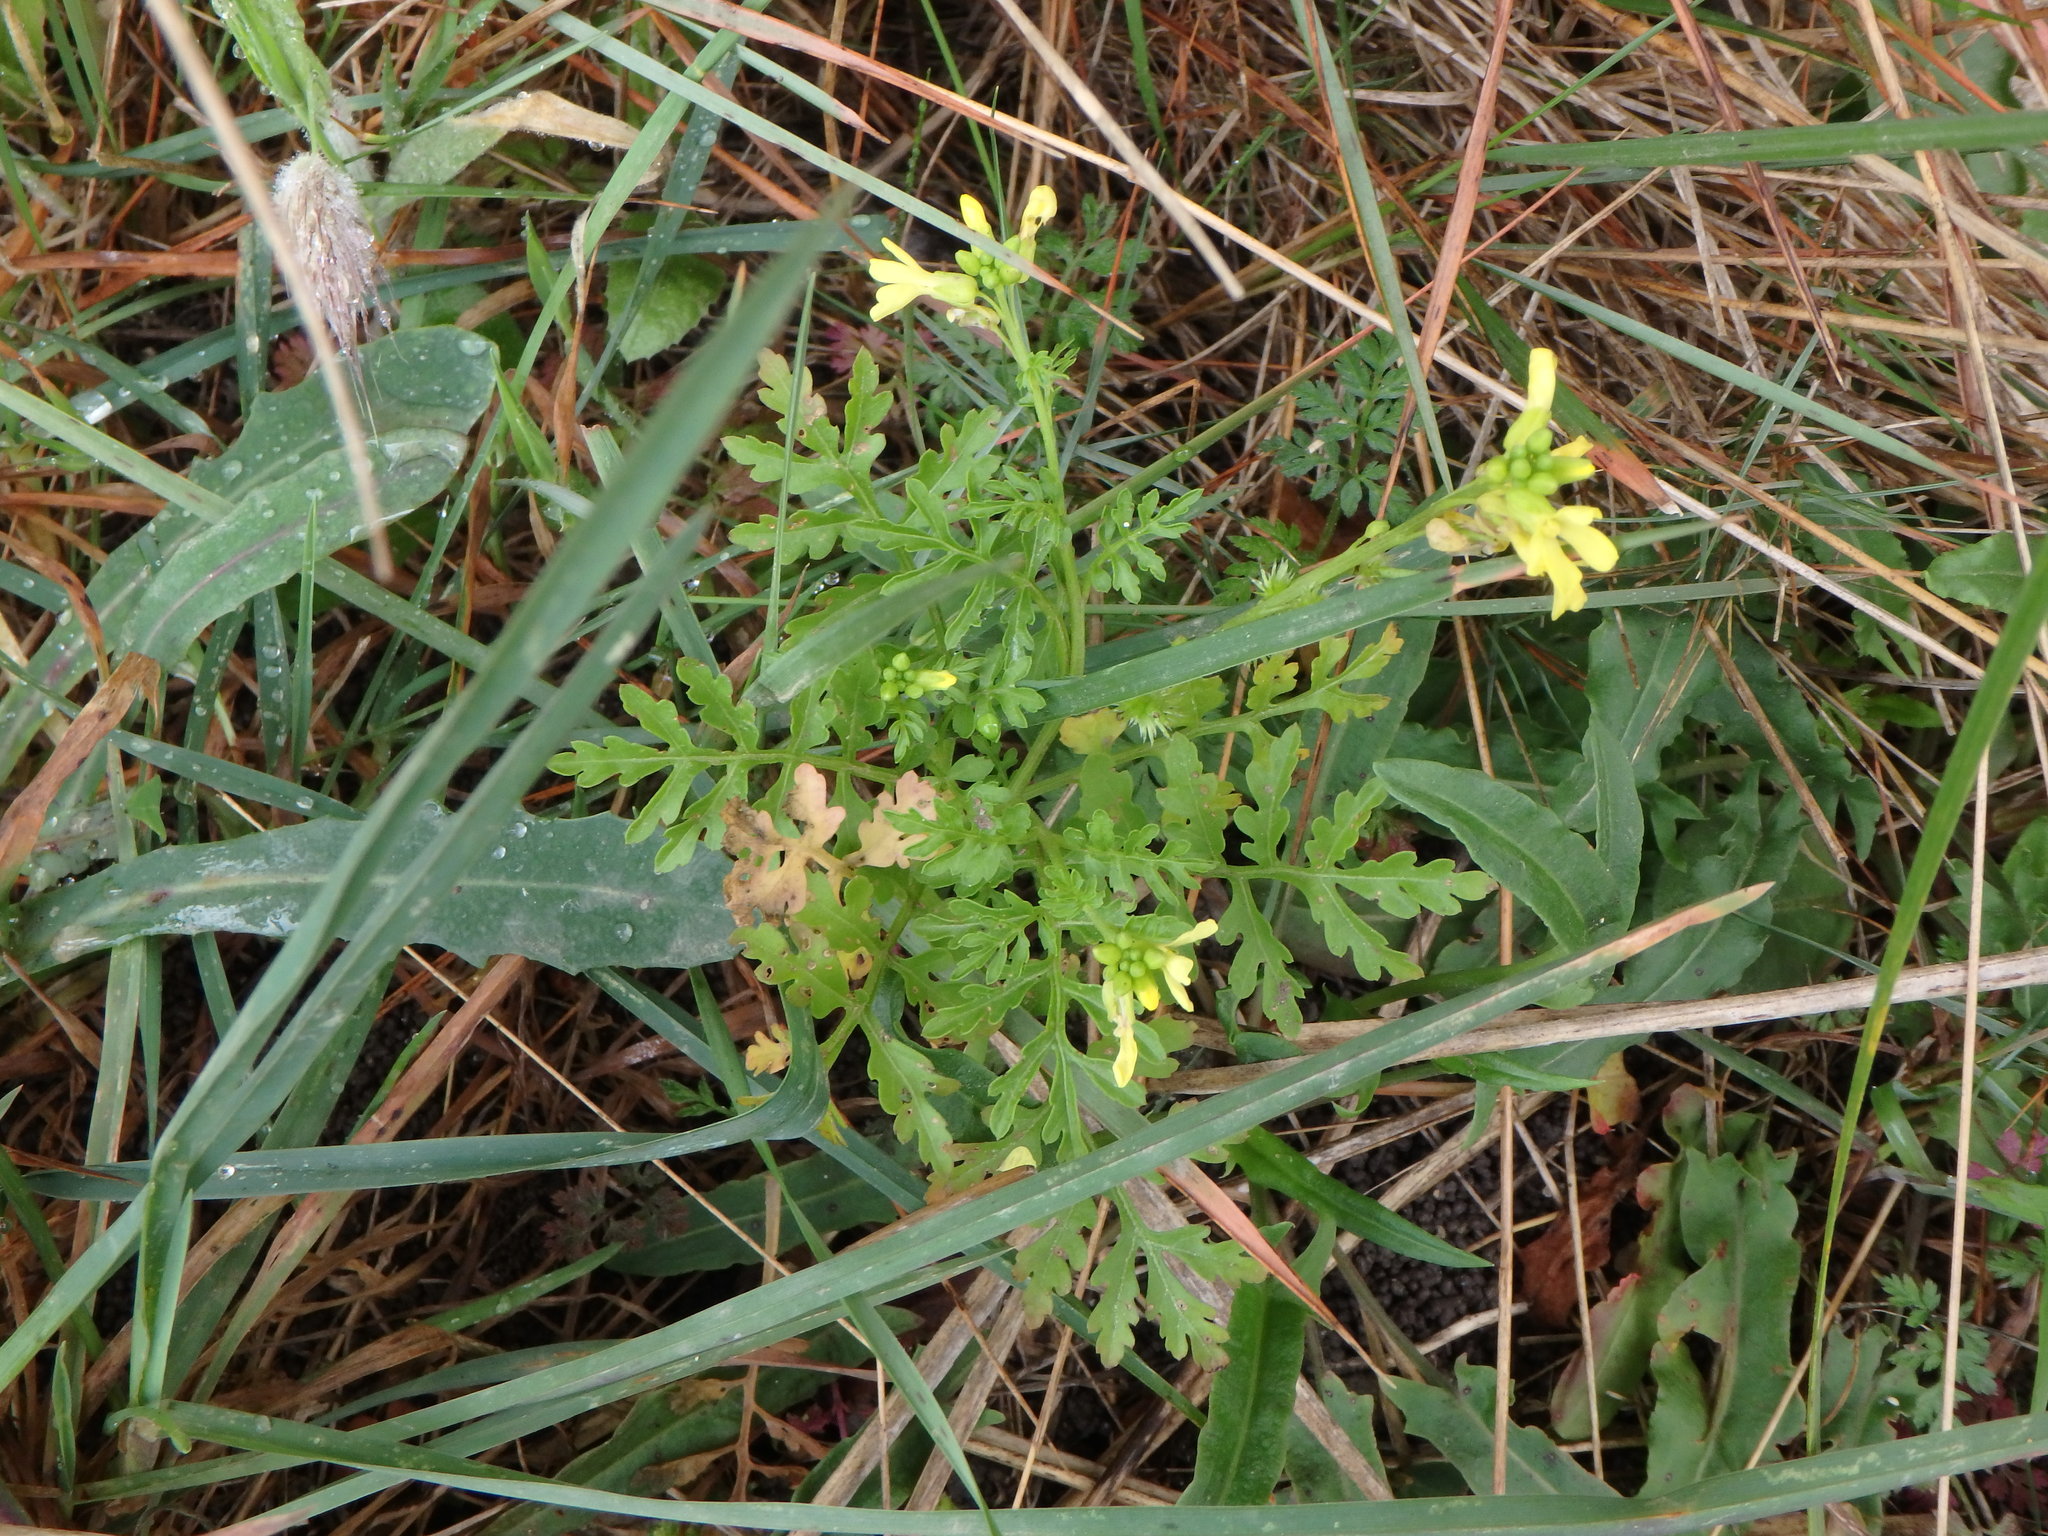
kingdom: Plantae
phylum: Tracheophyta
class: Magnoliopsida
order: Brassicales
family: Brassicaceae
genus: Succowia
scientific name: Succowia balearica
